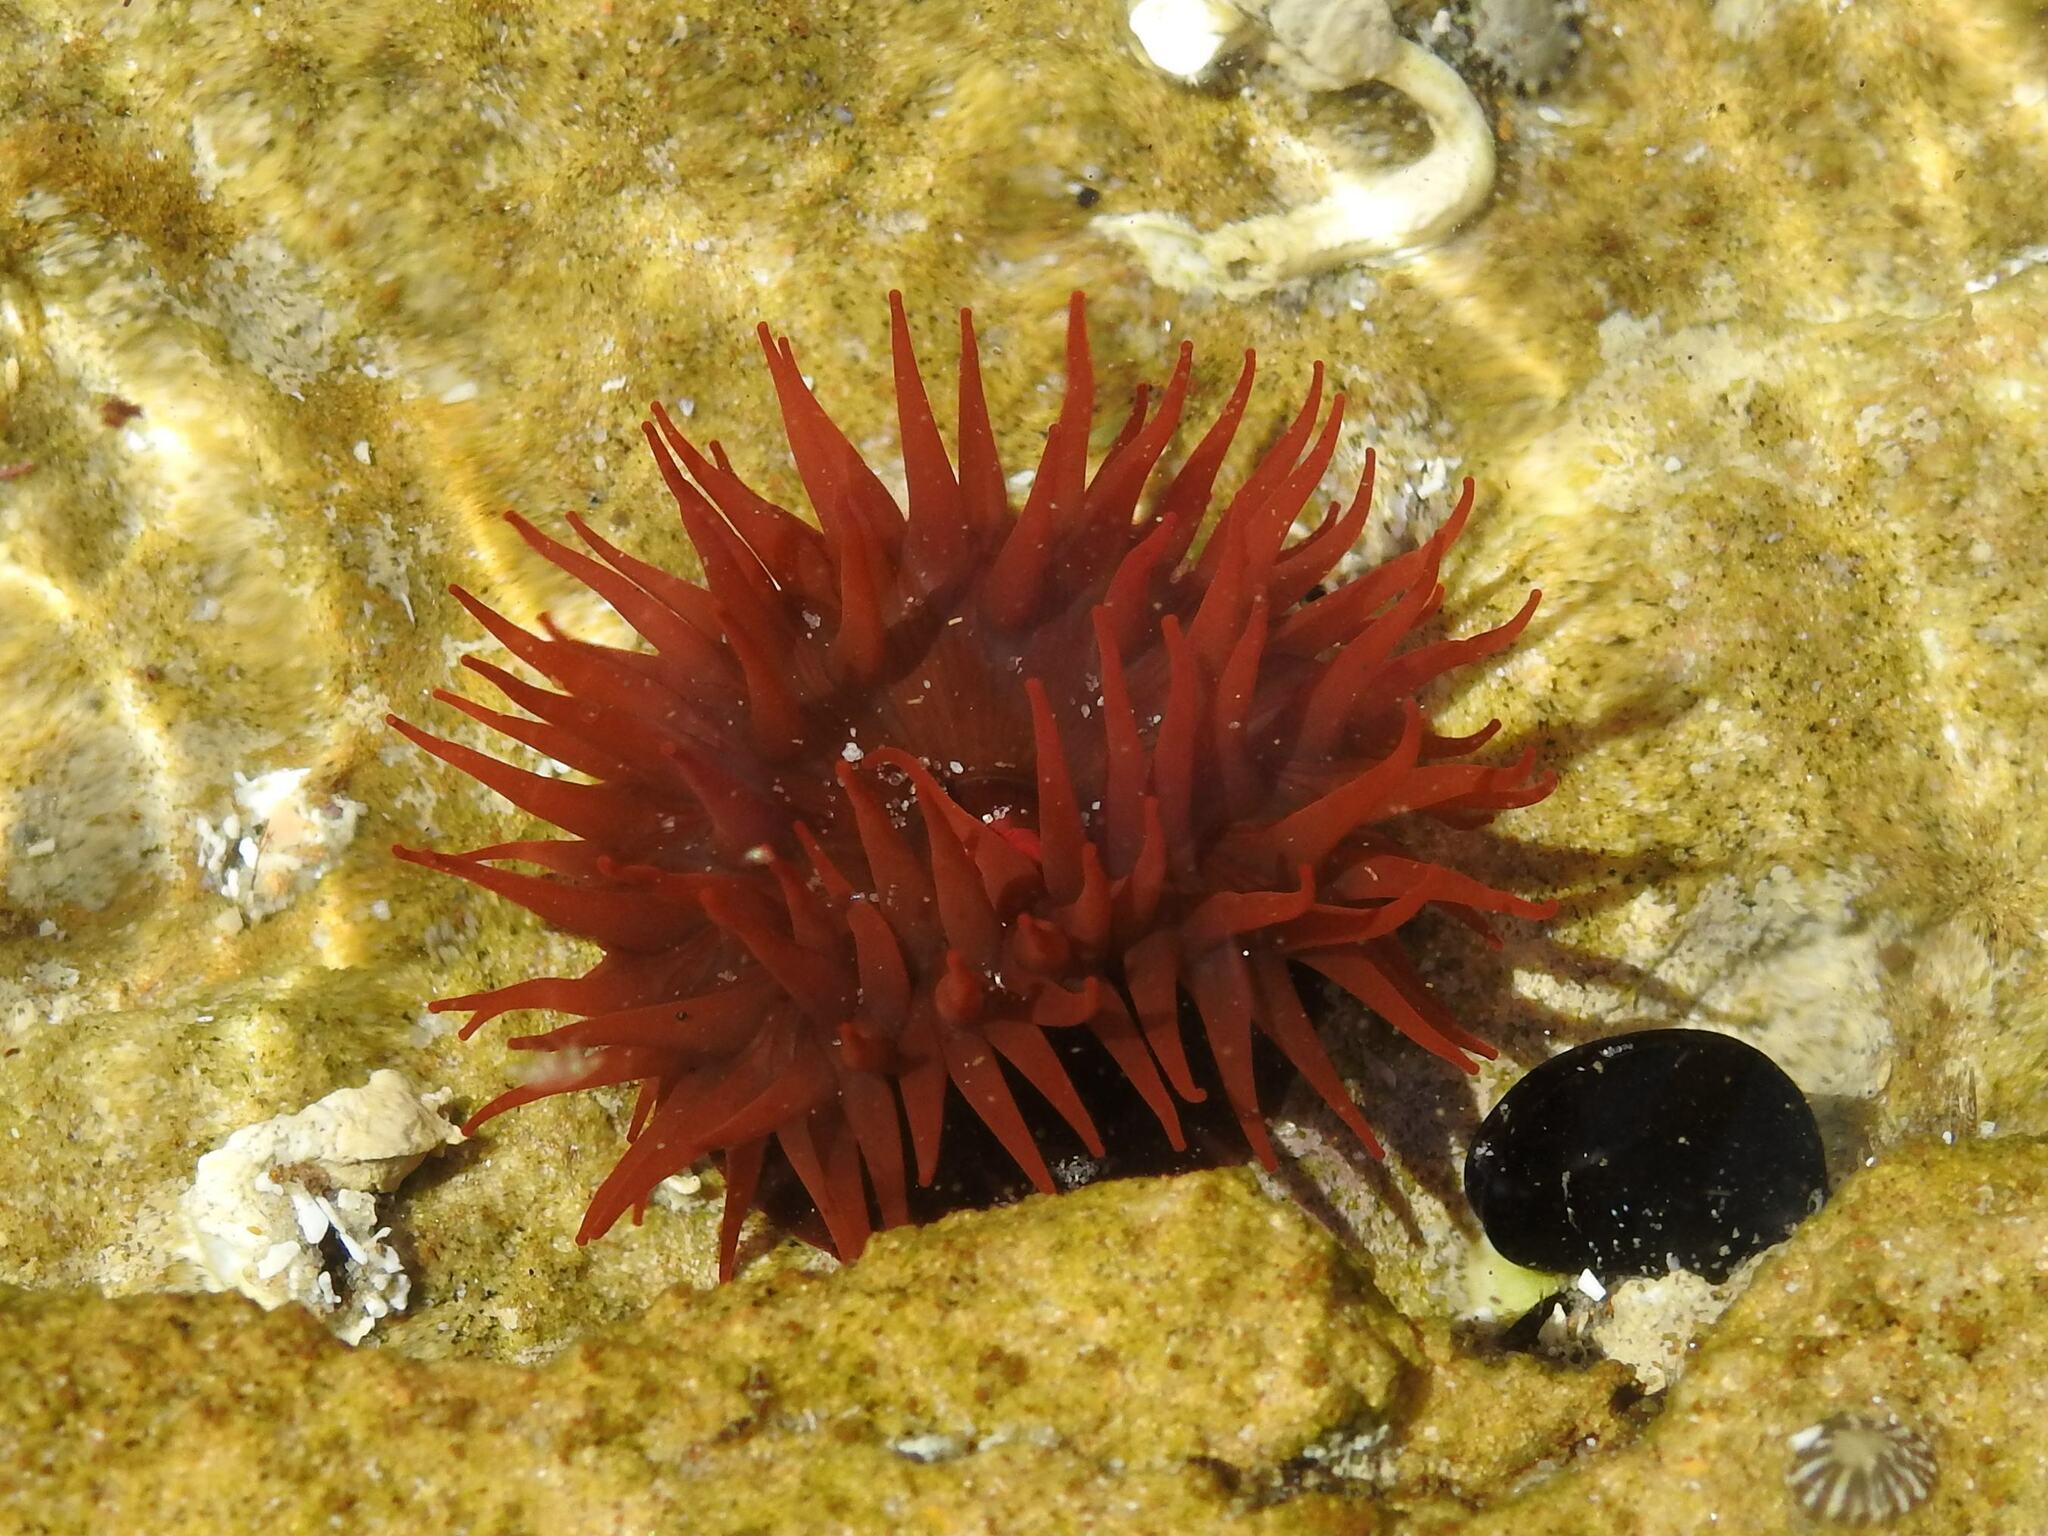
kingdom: Animalia
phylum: Cnidaria
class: Anthozoa
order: Actiniaria
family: Actiniidae
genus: Actinia
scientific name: Actinia tenebrosa
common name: Waratah anemone
